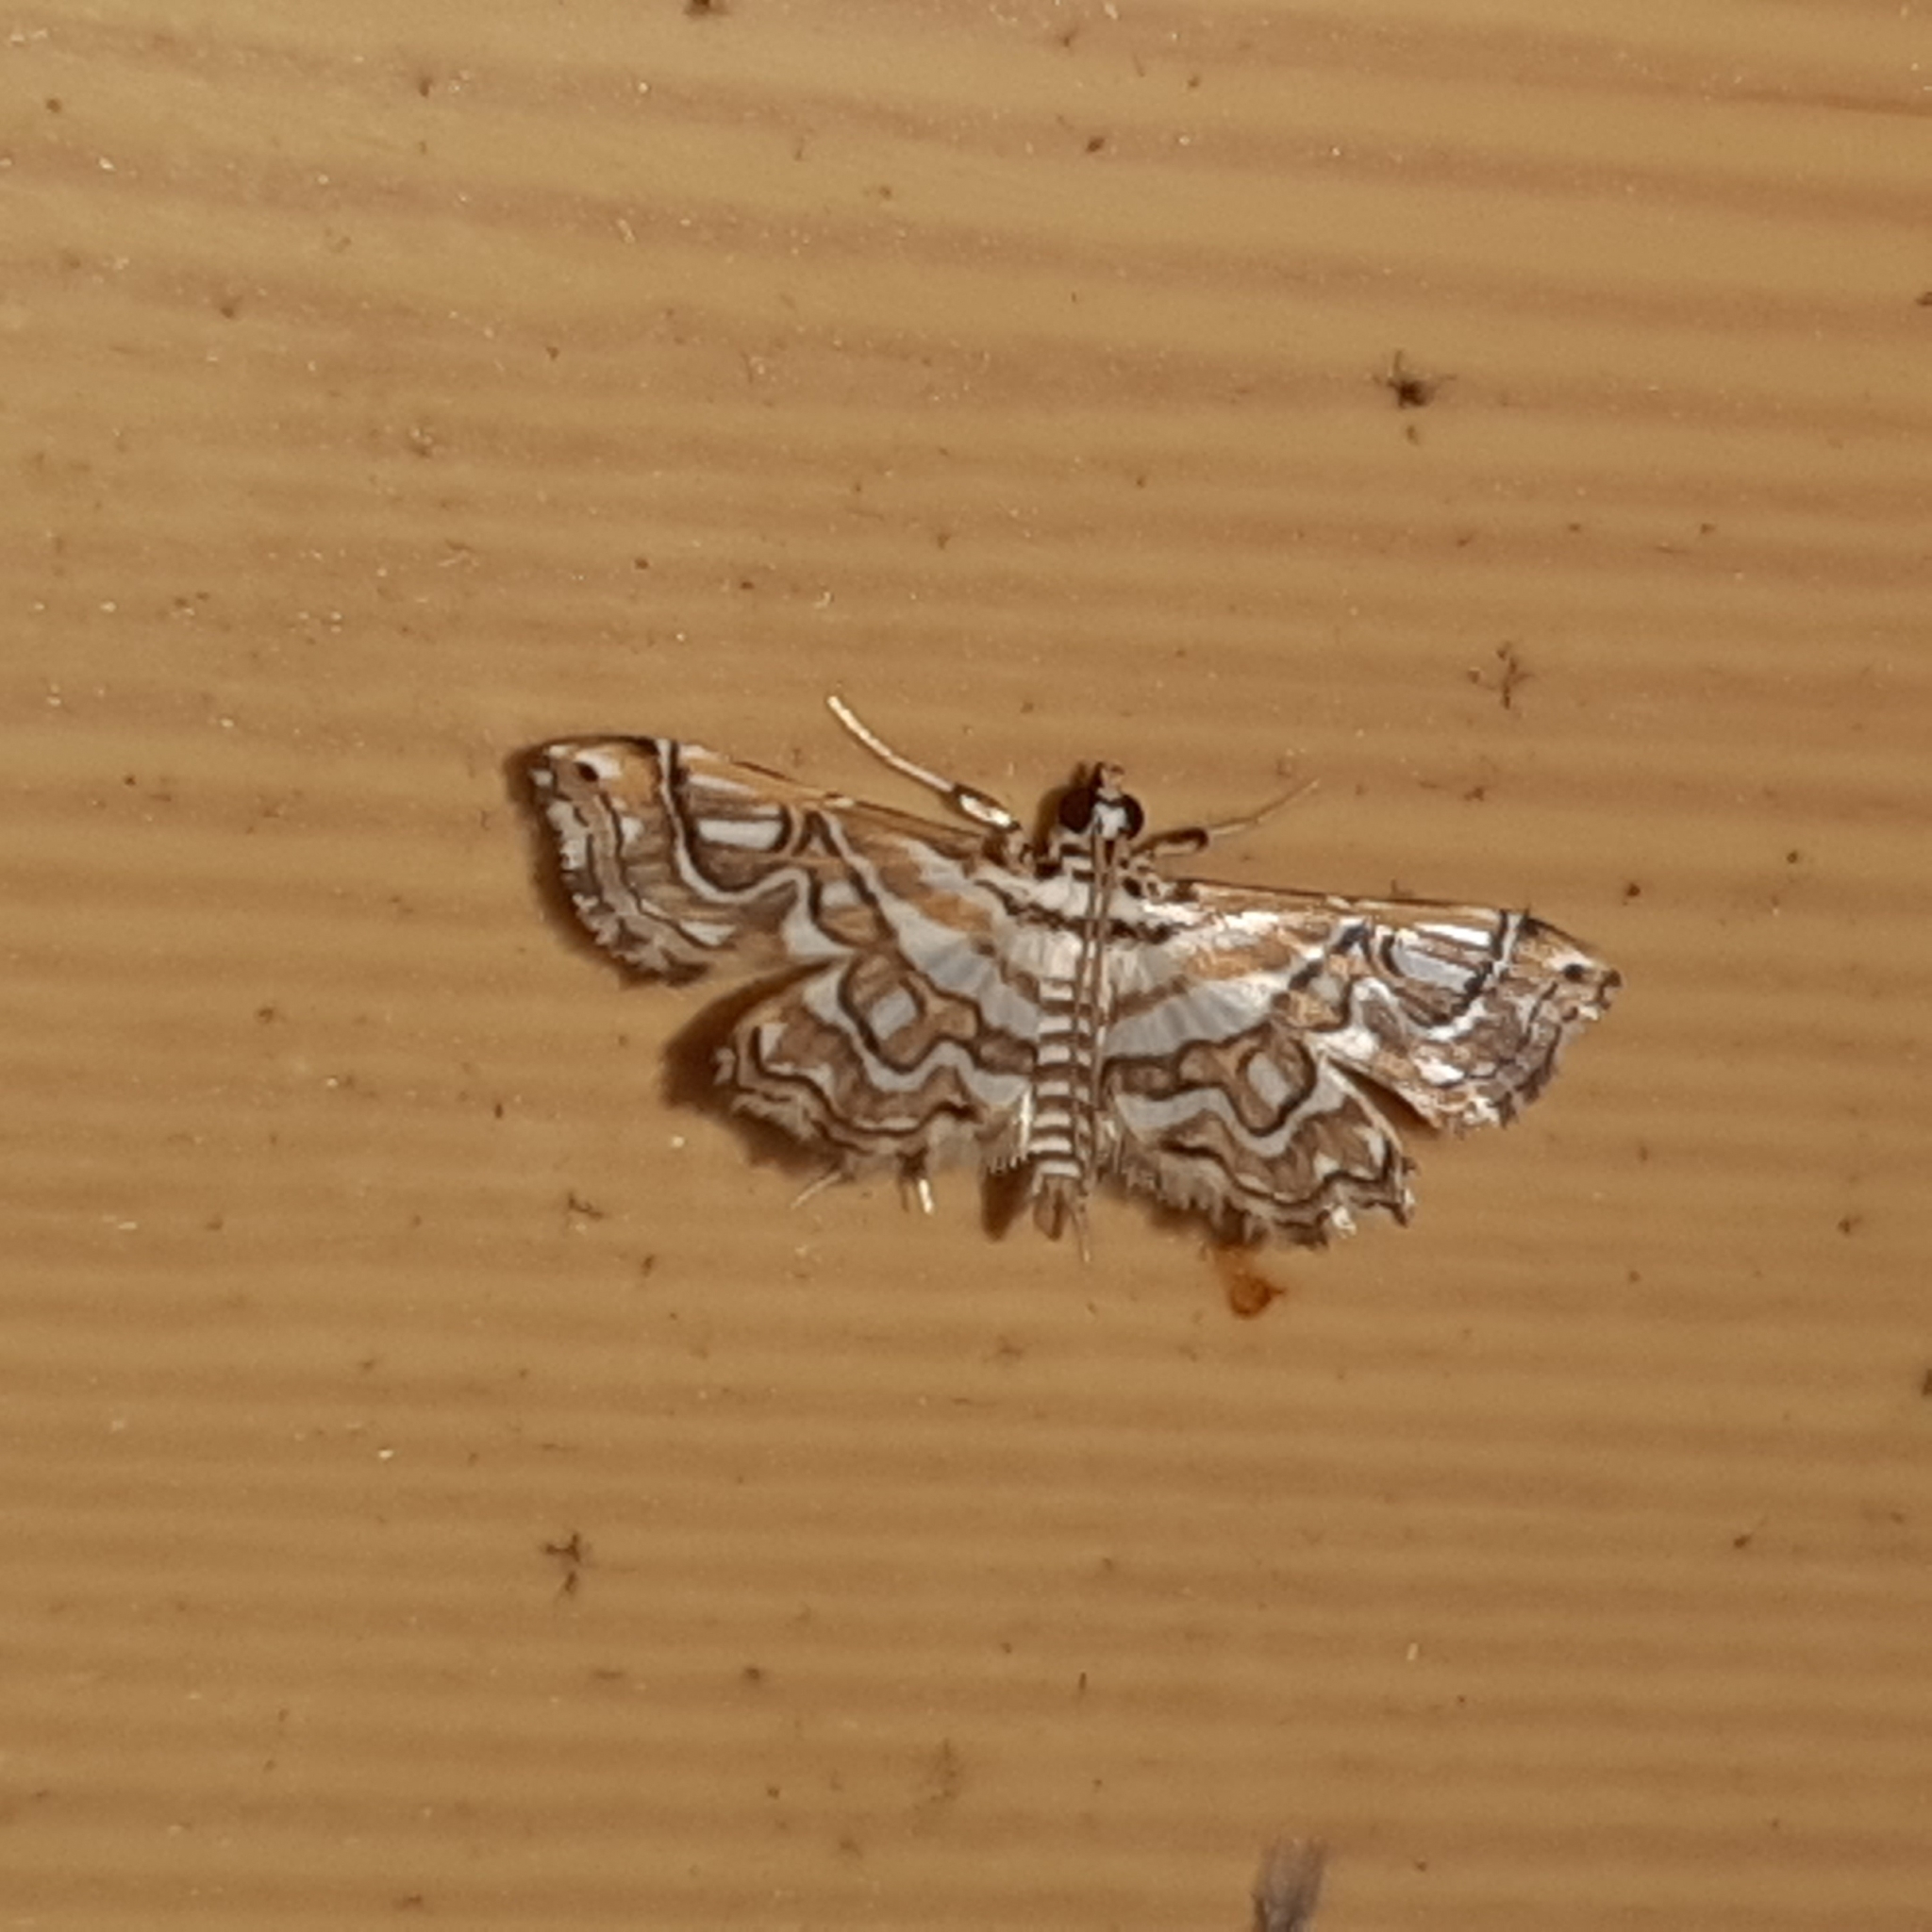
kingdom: Animalia
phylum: Arthropoda
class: Insecta
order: Lepidoptera
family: Pyralidae
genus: Undulambia
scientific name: Undulambia polystichalis
